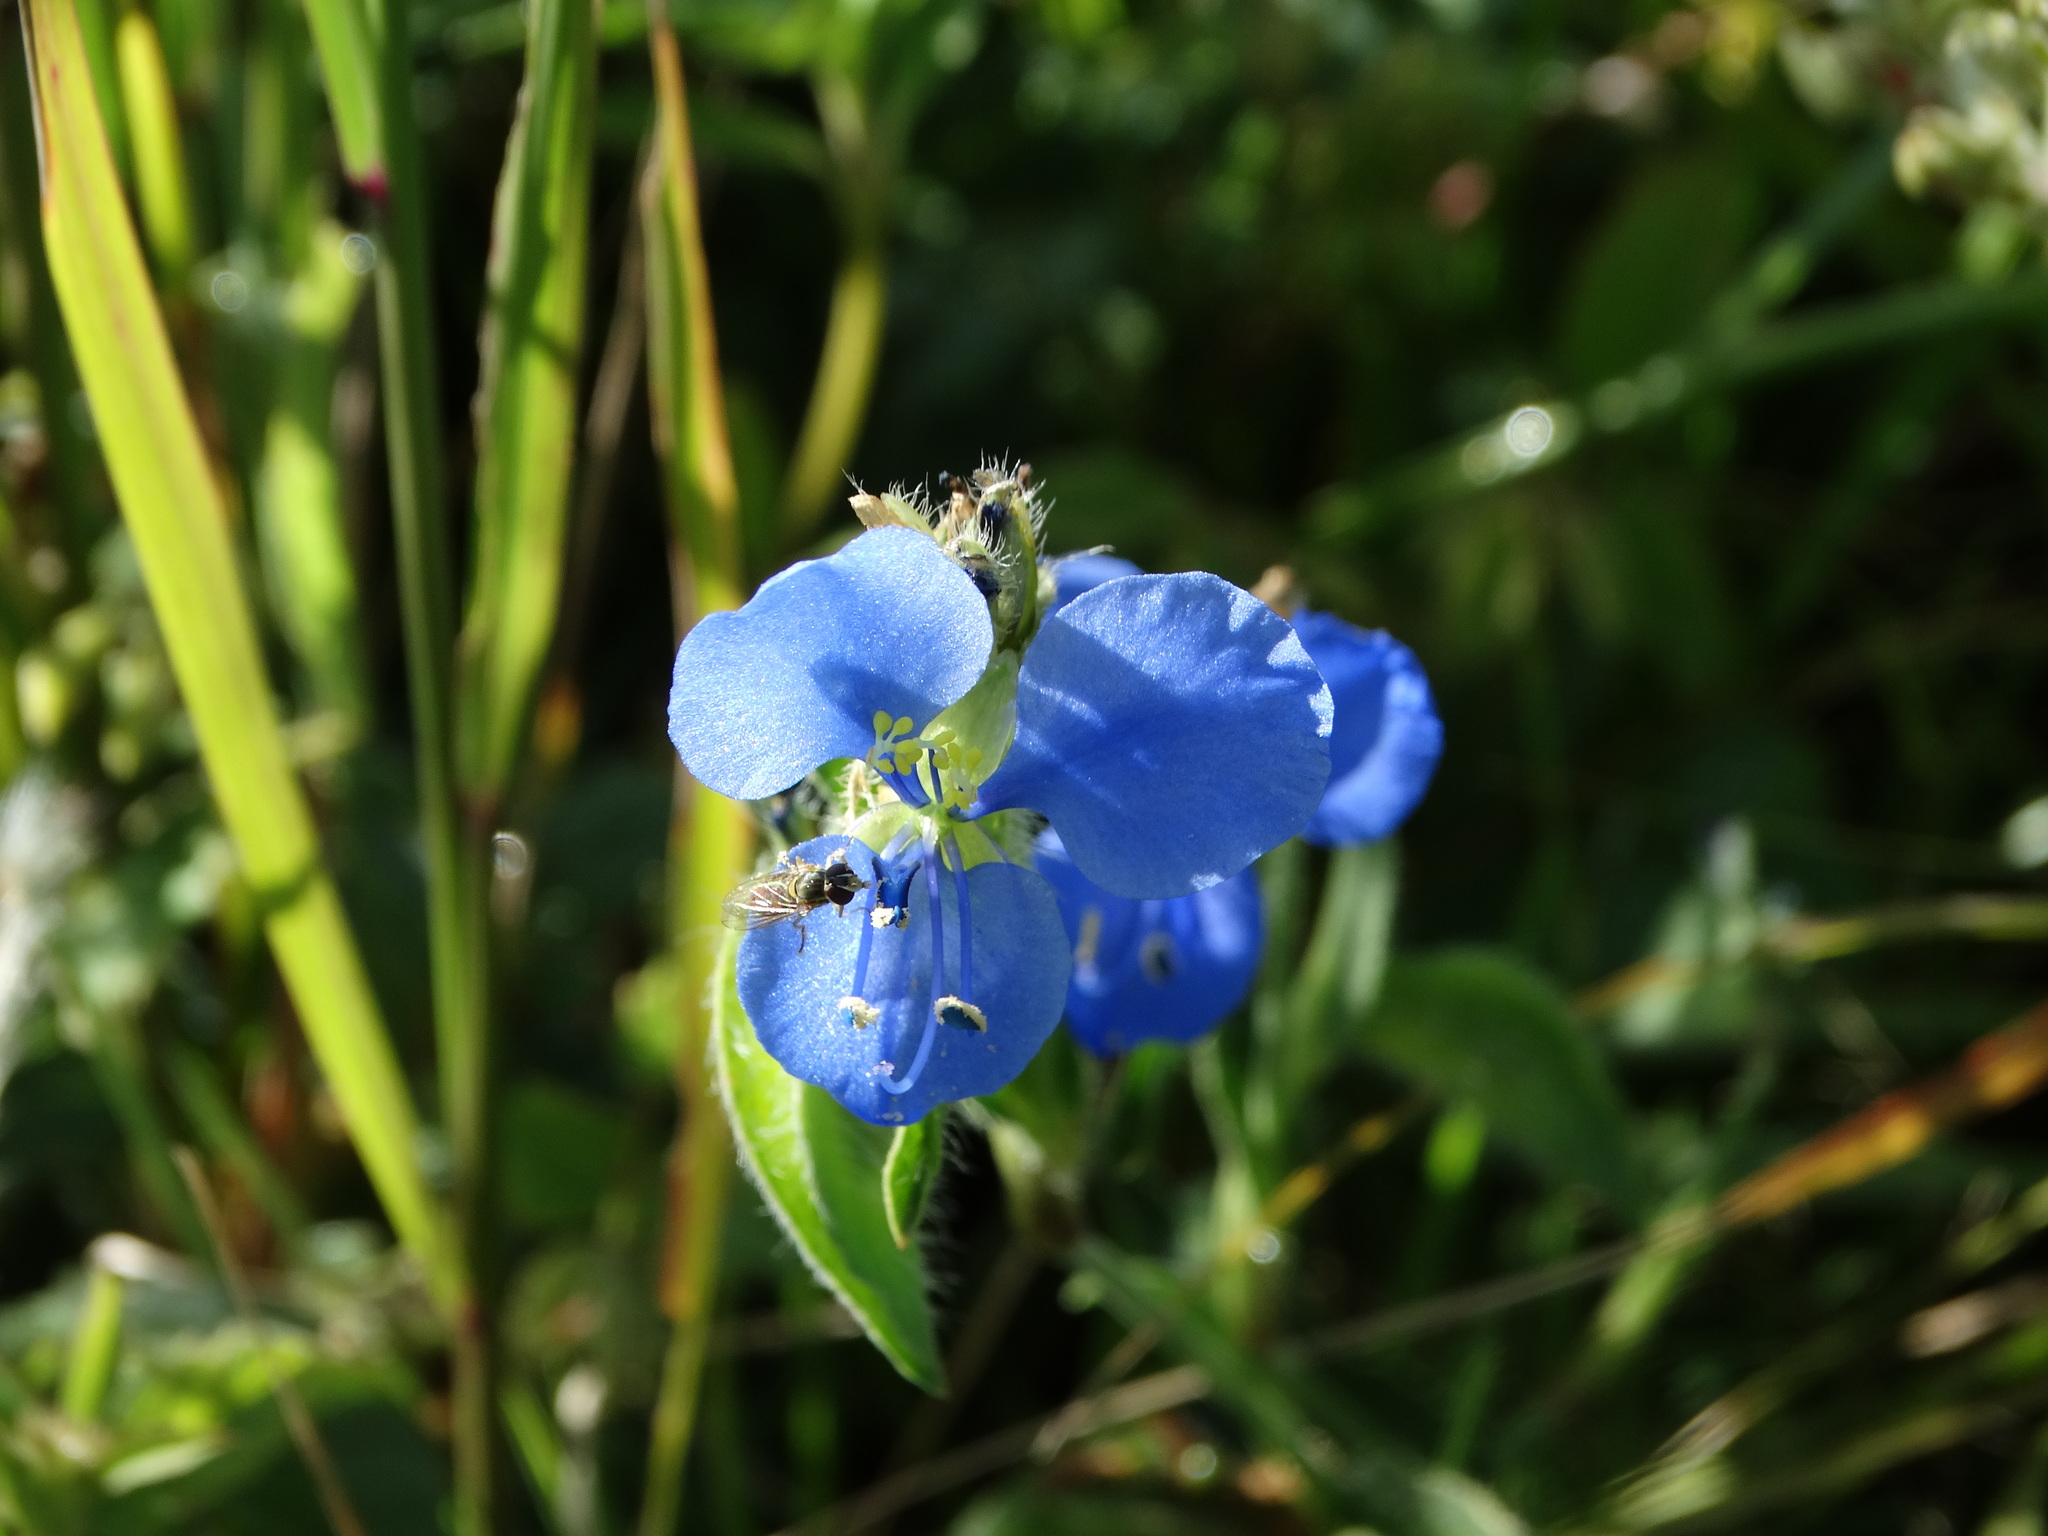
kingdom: Plantae
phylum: Tracheophyta
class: Liliopsida
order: Commelinales
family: Commelinaceae
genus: Commelina
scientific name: Commelina tuberosa
